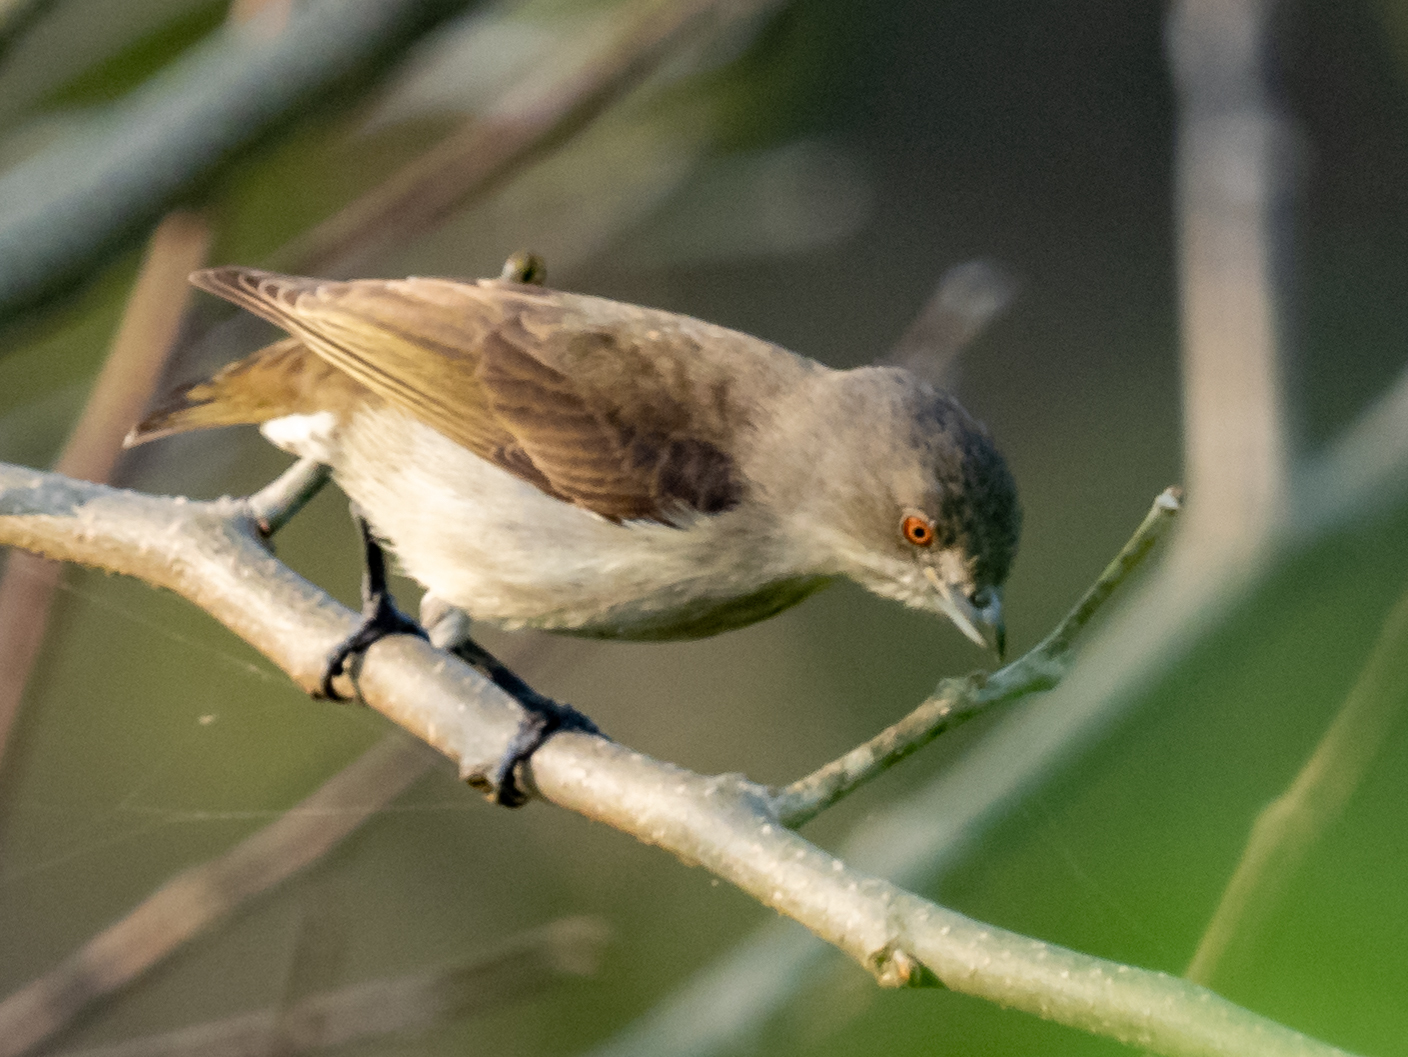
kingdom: Animalia
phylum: Chordata
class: Aves
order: Passeriformes
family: Dicaeidae
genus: Dicaeum
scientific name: Dicaeum agile
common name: Thick-billed flowerpecker
